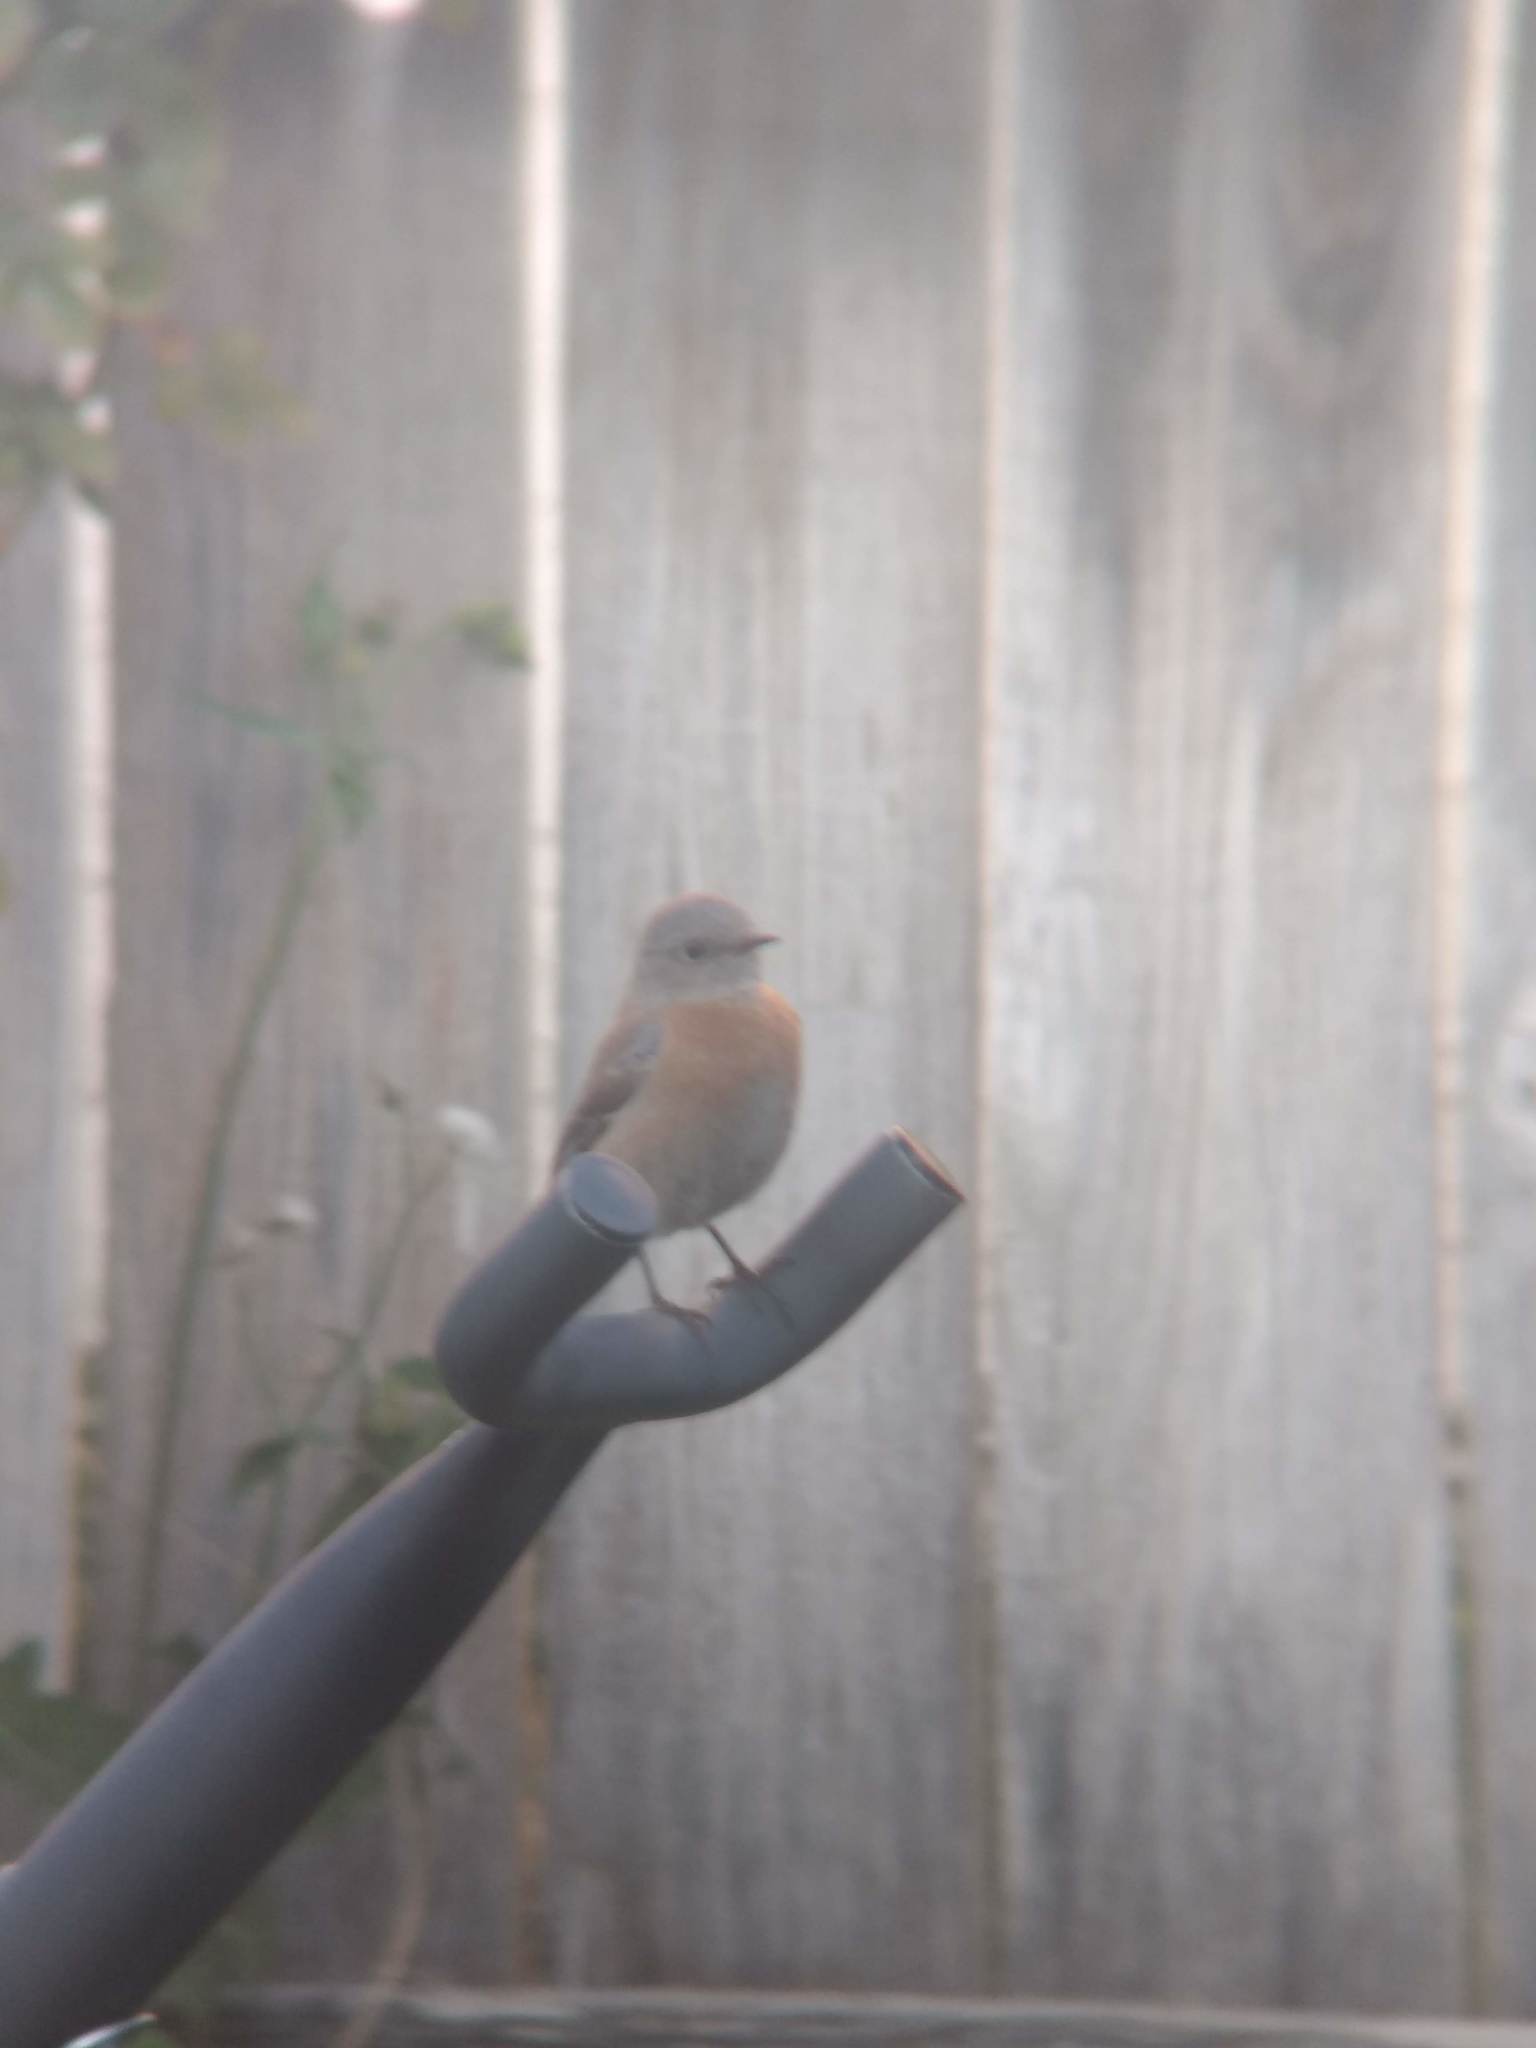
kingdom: Animalia
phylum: Chordata
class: Aves
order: Passeriformes
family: Turdidae
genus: Sialia
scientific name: Sialia mexicana
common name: Western bluebird
